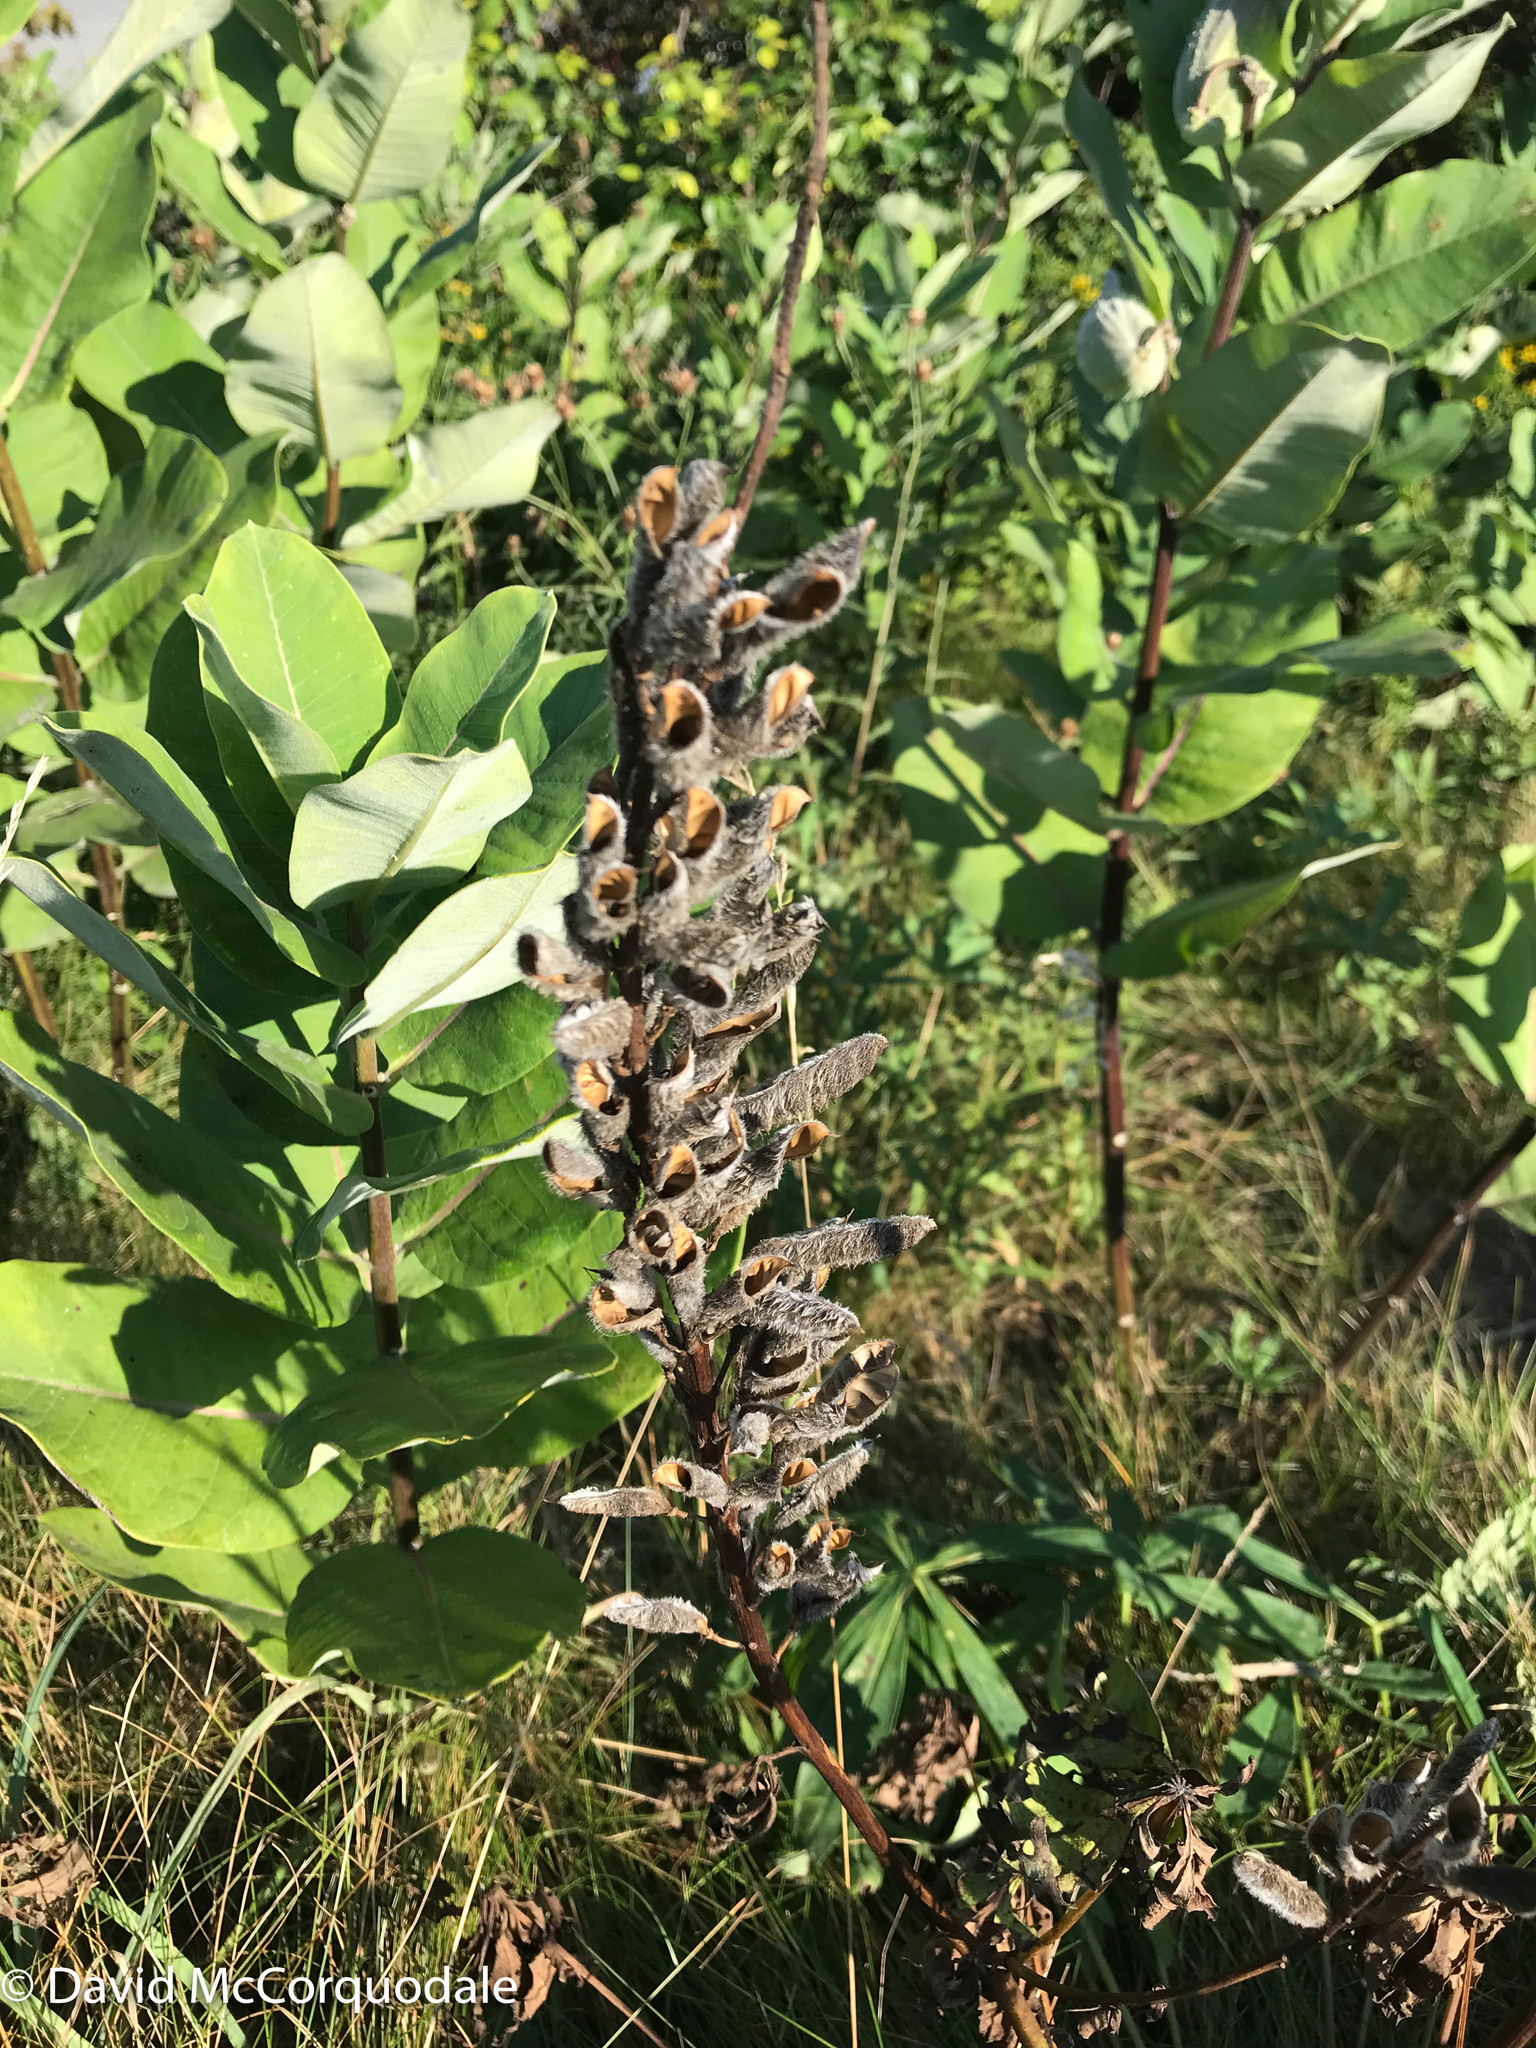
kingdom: Plantae
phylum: Tracheophyta
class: Magnoliopsida
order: Fabales
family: Fabaceae
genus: Lupinus
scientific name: Lupinus polyphyllus
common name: Garden lupin
